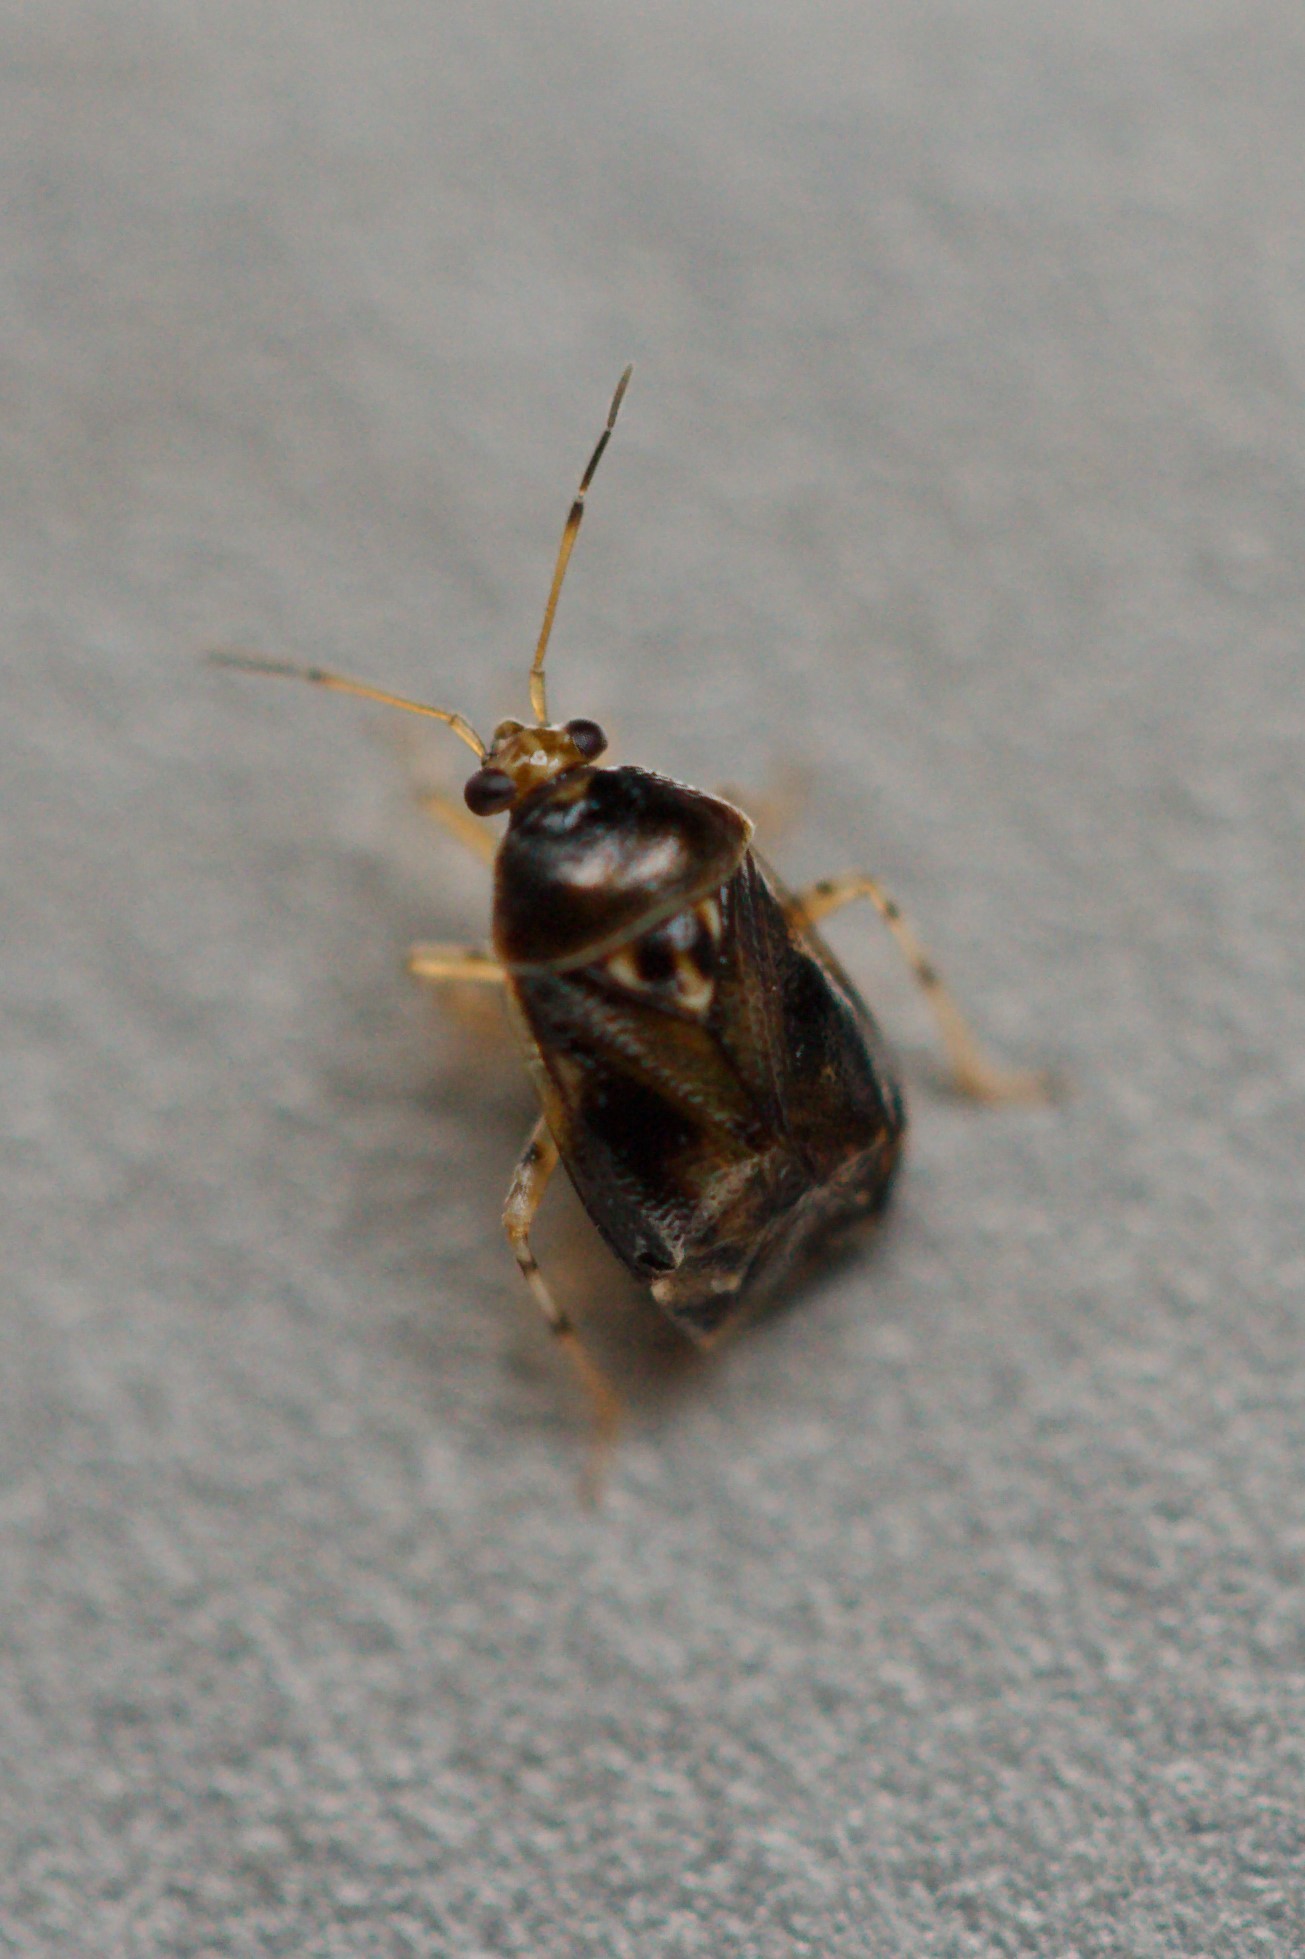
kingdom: Animalia
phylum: Arthropoda
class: Insecta
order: Hemiptera
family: Miridae
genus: Deraeocoris
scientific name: Deraeocoris lutescens
